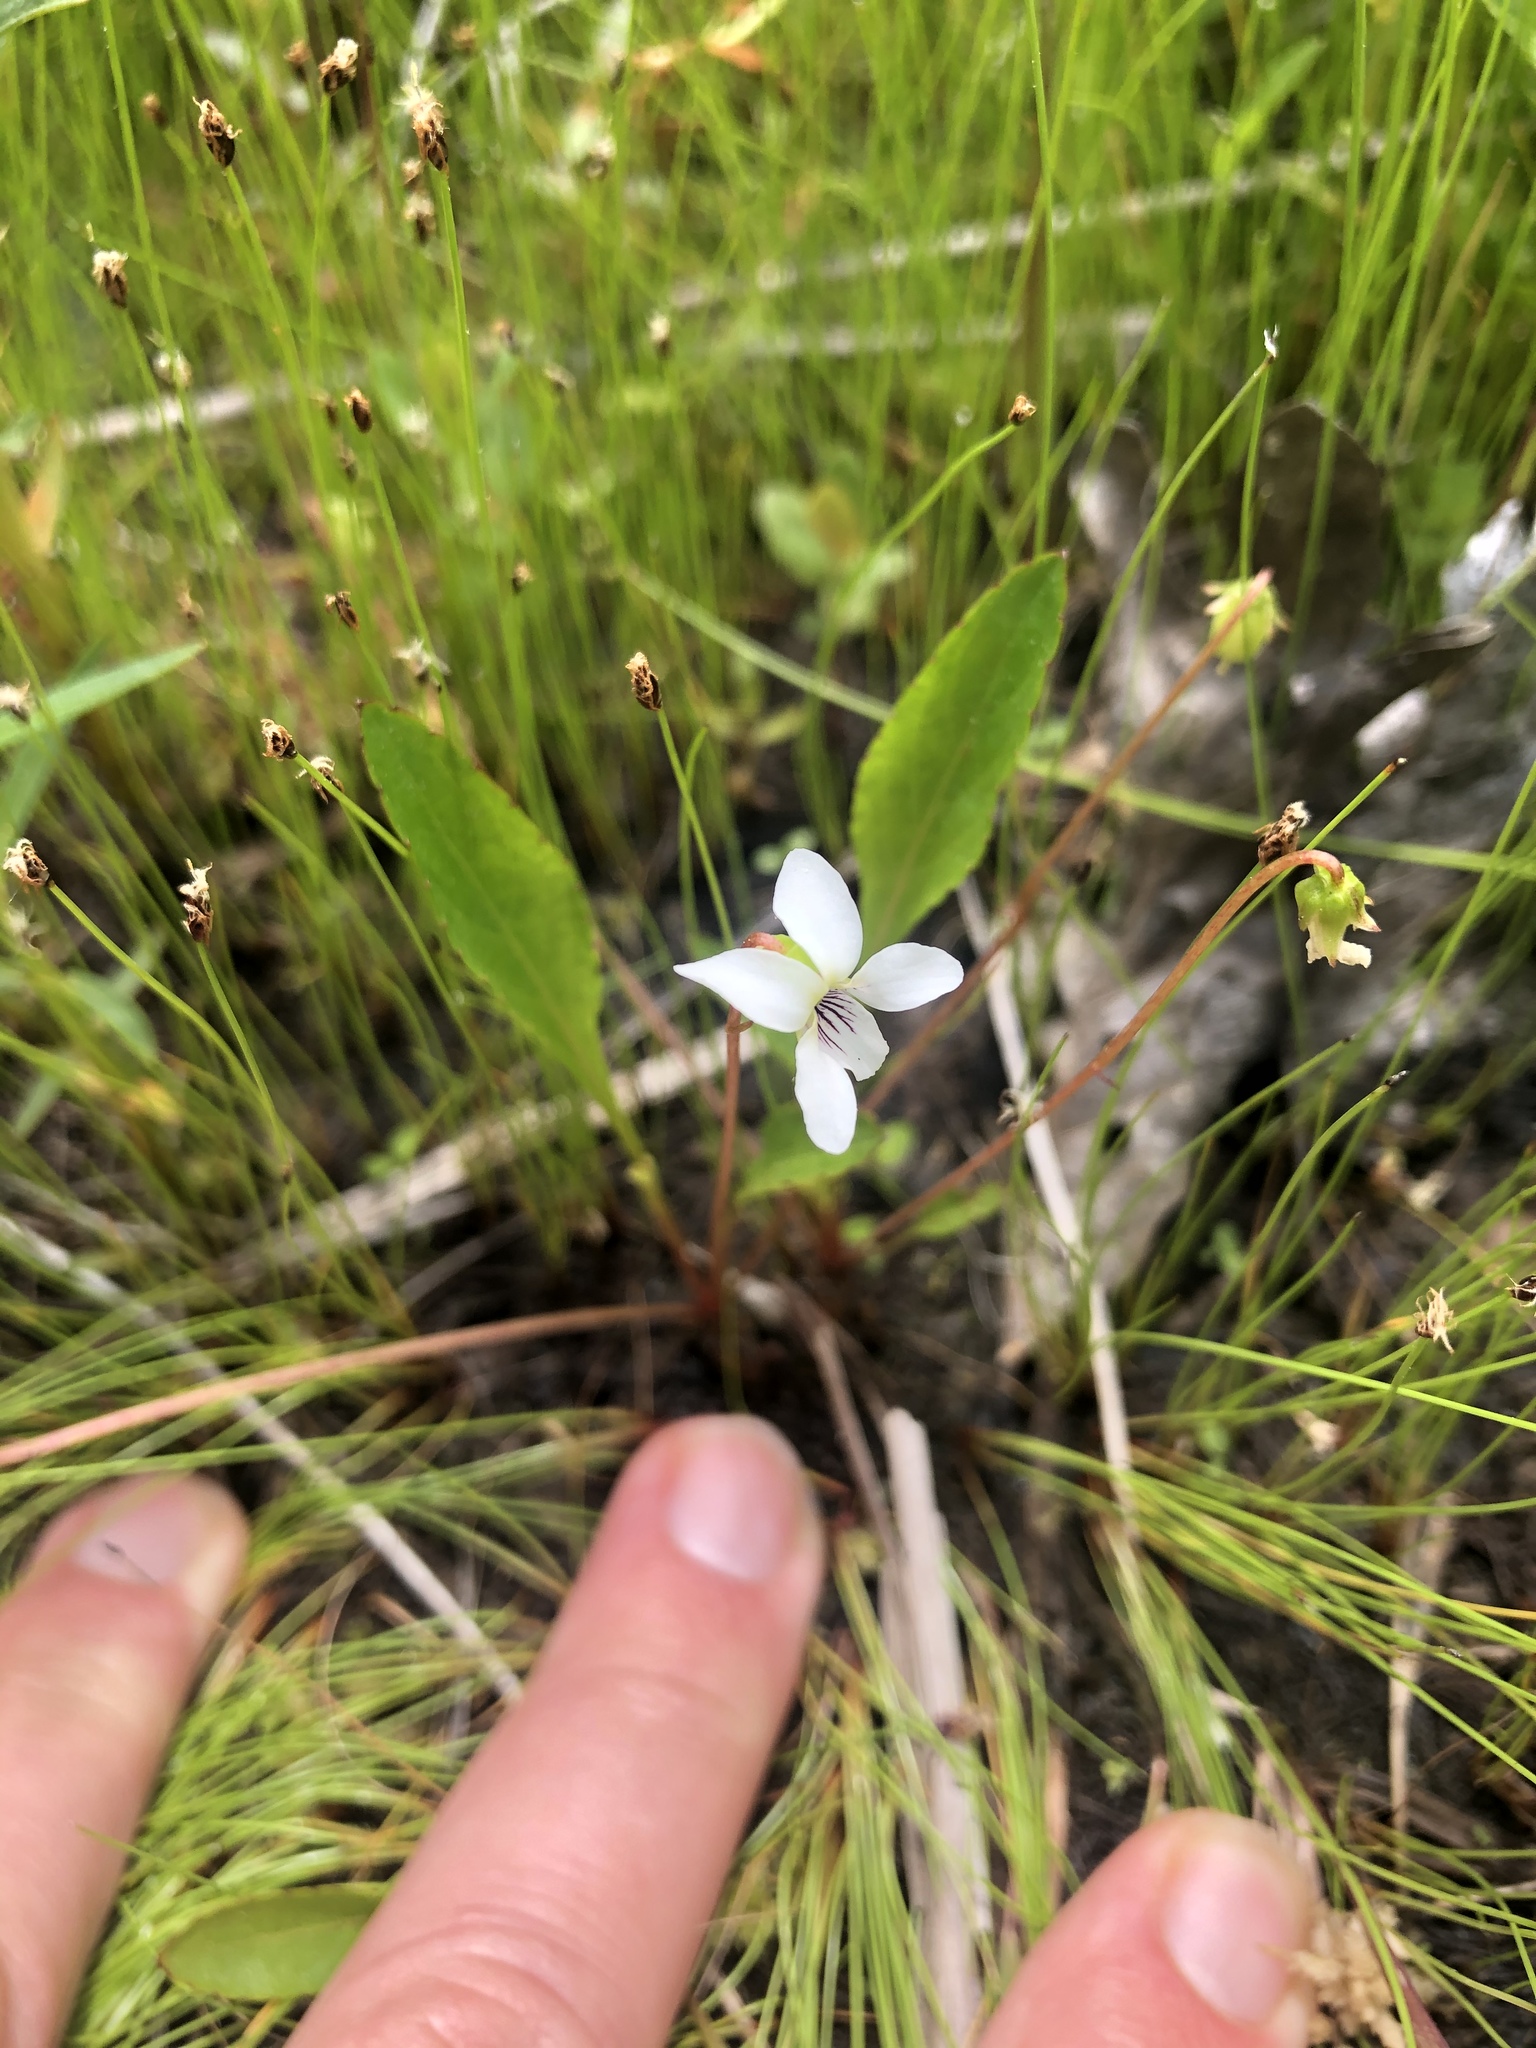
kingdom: Plantae
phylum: Tracheophyta
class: Magnoliopsida
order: Malpighiales
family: Violaceae
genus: Viola
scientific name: Viola lanceolata
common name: Bog white violet
